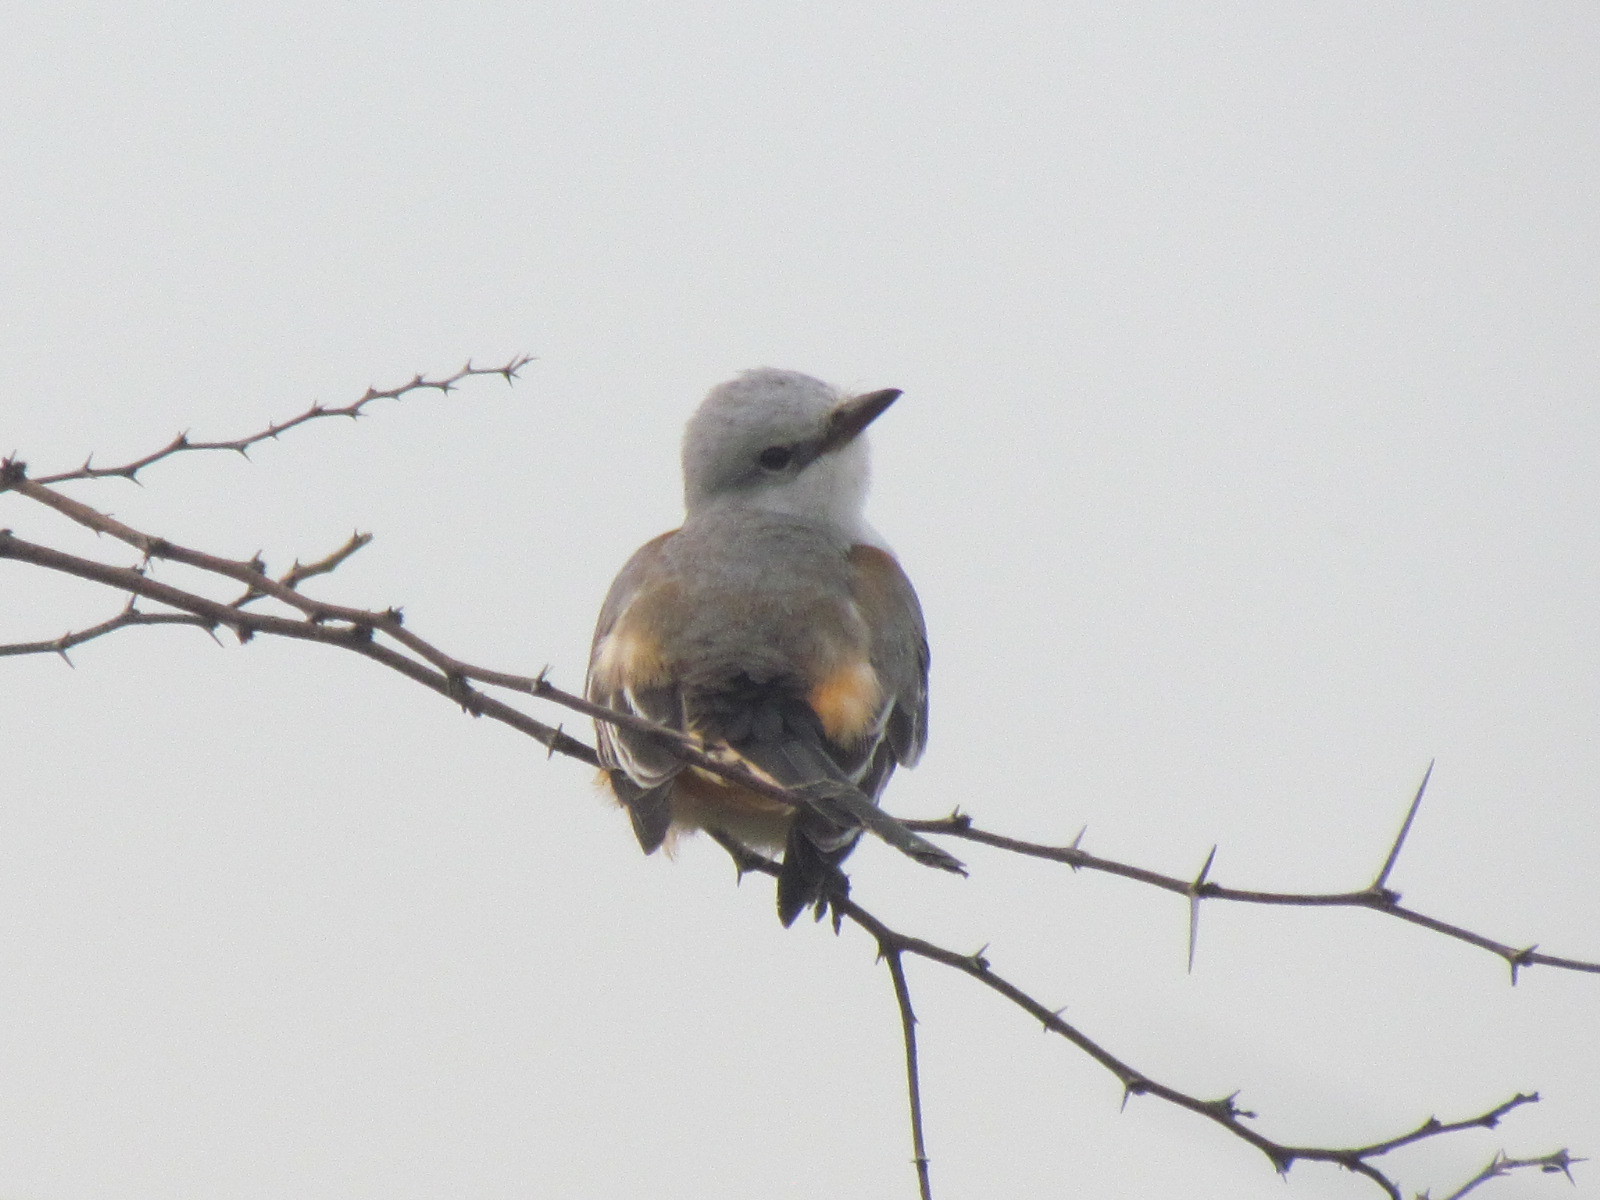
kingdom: Animalia
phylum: Chordata
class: Aves
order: Passeriformes
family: Tyrannidae
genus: Tyrannus
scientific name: Tyrannus forficatus
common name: Scissor-tailed flycatcher
